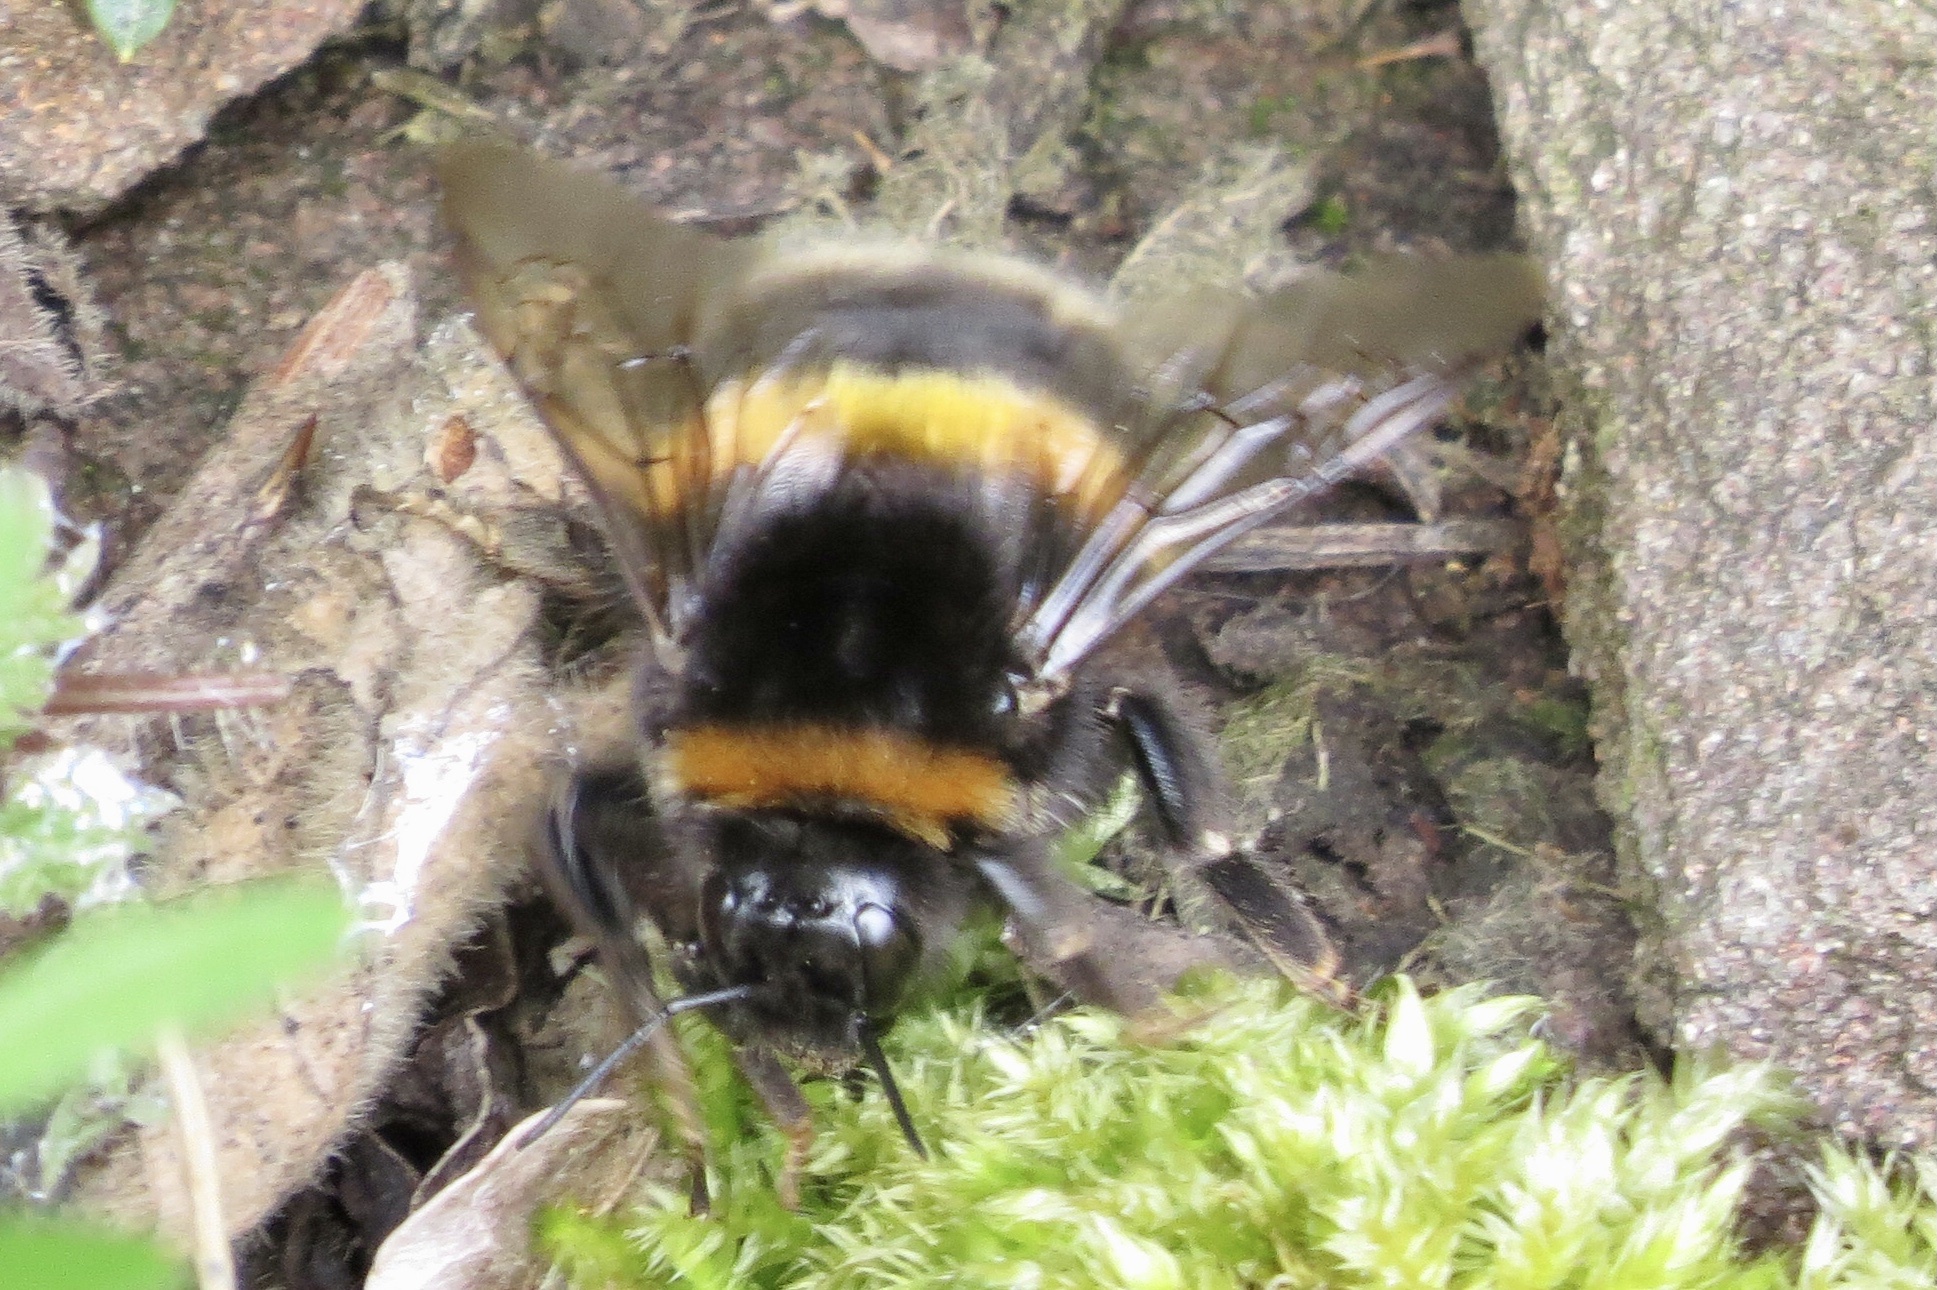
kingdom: Animalia
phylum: Arthropoda
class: Insecta
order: Hymenoptera
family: Apidae
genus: Bombus
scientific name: Bombus terrestris
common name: Buff-tailed bumblebee
